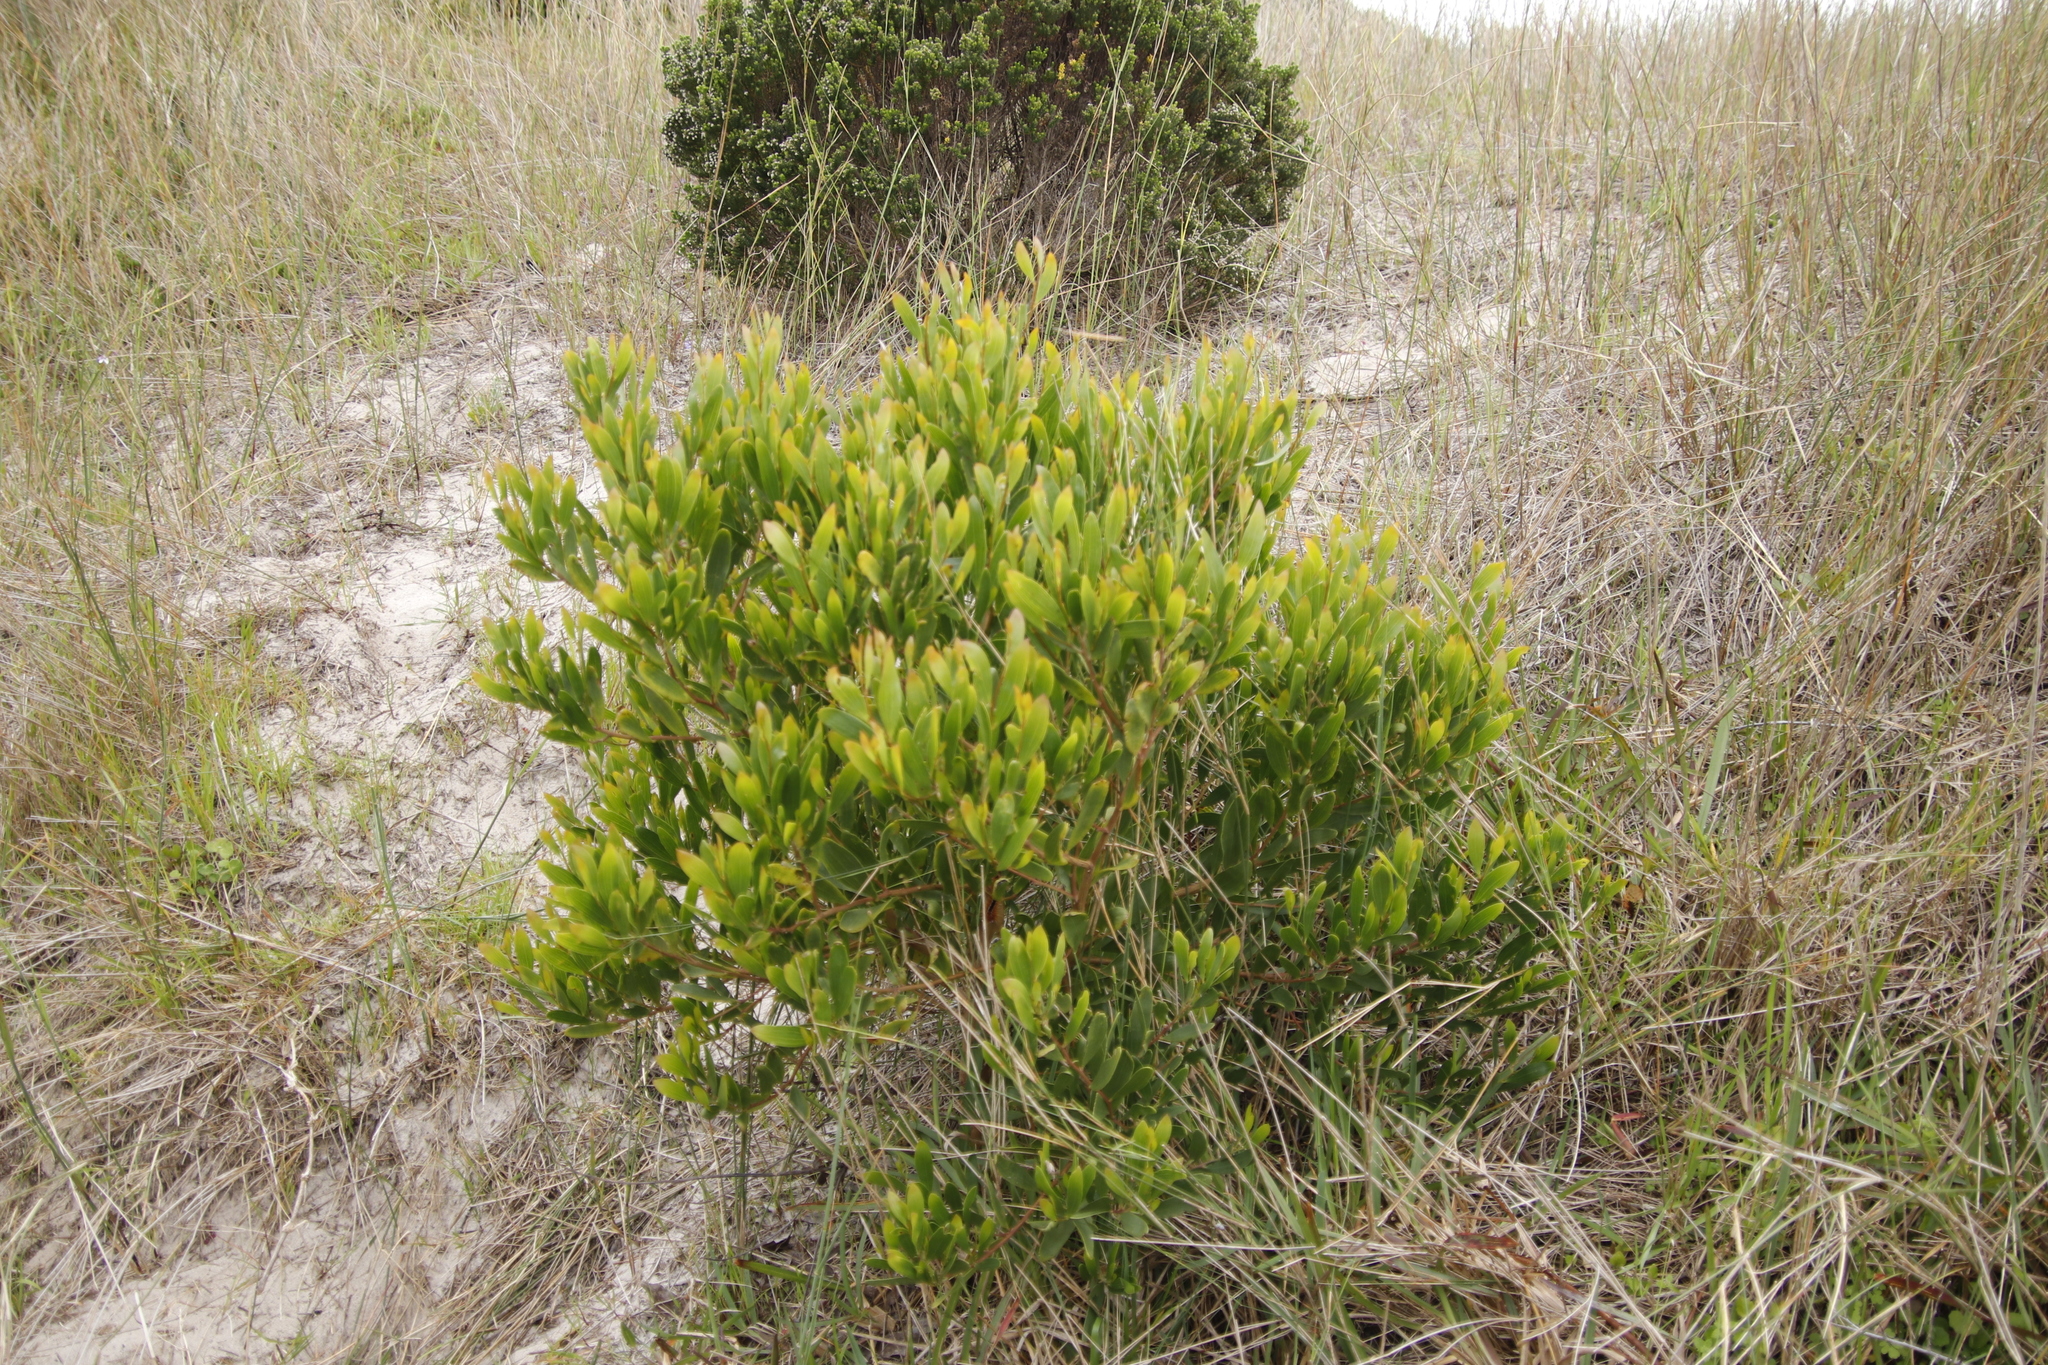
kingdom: Plantae
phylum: Tracheophyta
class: Magnoliopsida
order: Fabales
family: Fabaceae
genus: Acacia
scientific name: Acacia cyclops
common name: Coastal wattle
